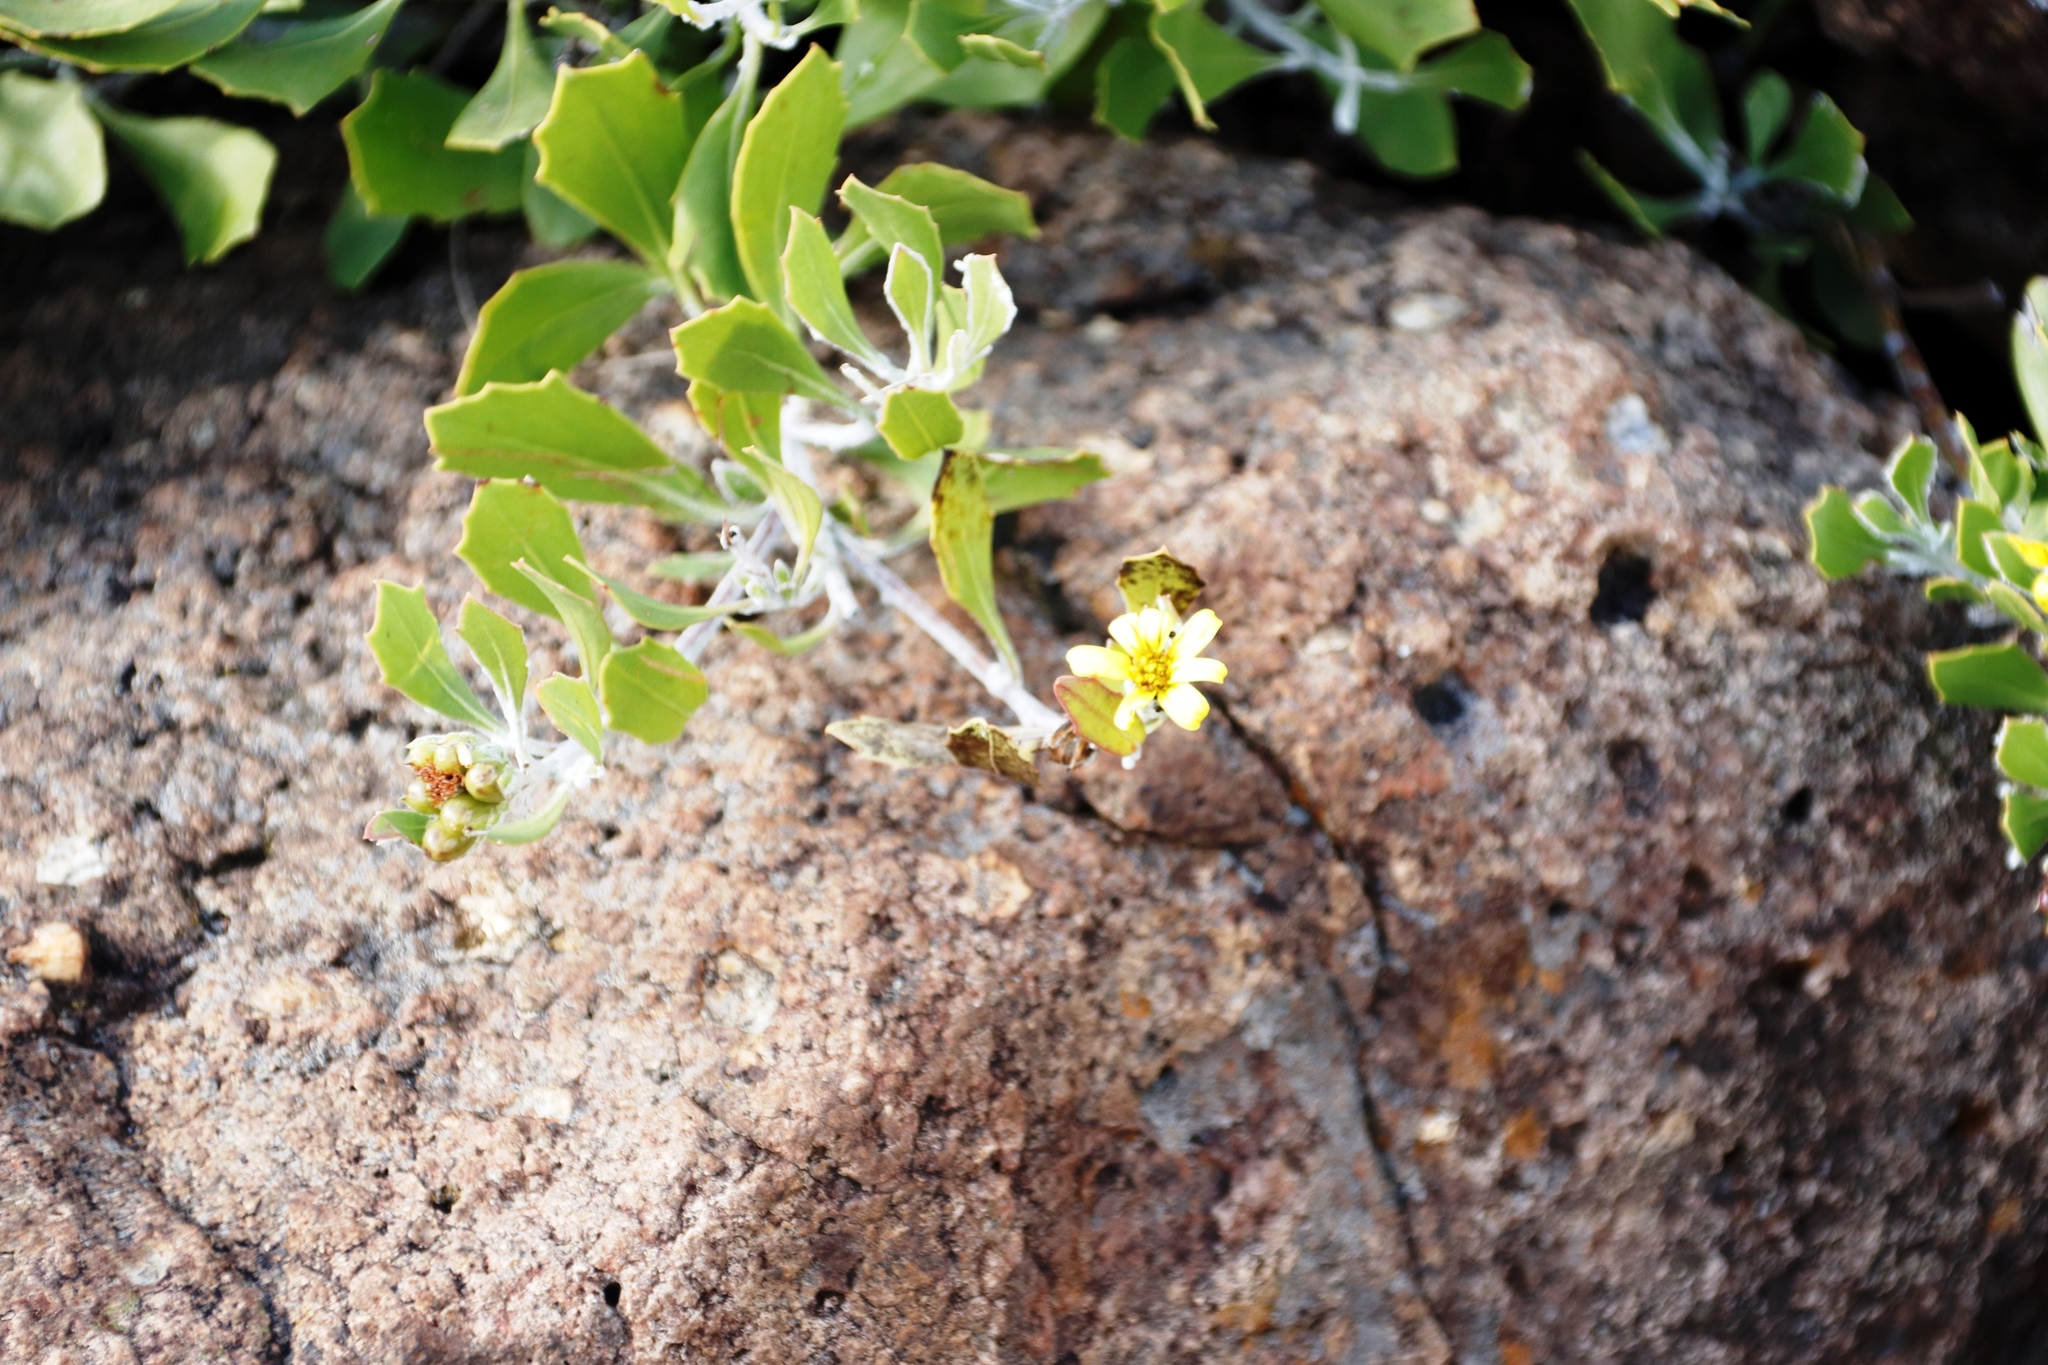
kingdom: Plantae
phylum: Tracheophyta
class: Magnoliopsida
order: Asterales
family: Asteraceae
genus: Osteospermum
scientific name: Osteospermum moniliferum
